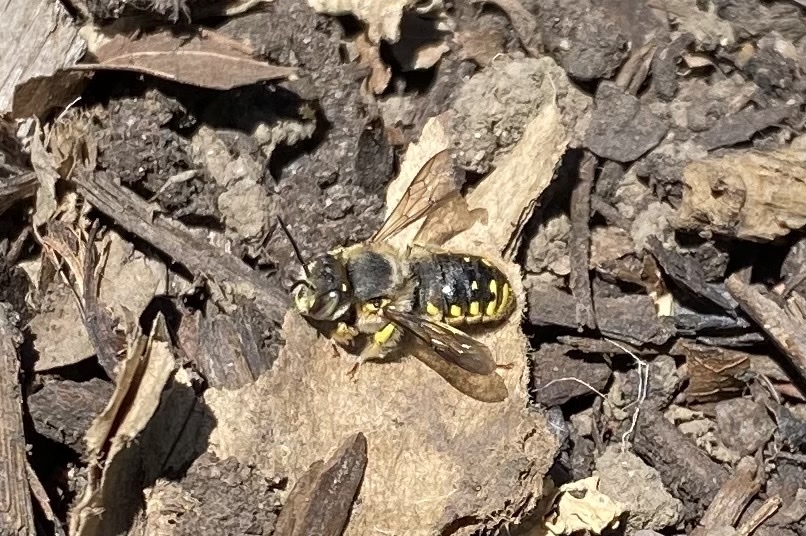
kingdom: Animalia
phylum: Arthropoda
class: Insecta
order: Hymenoptera
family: Megachilidae
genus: Anthidium
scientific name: Anthidium manicatum
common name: Wool carder bee
